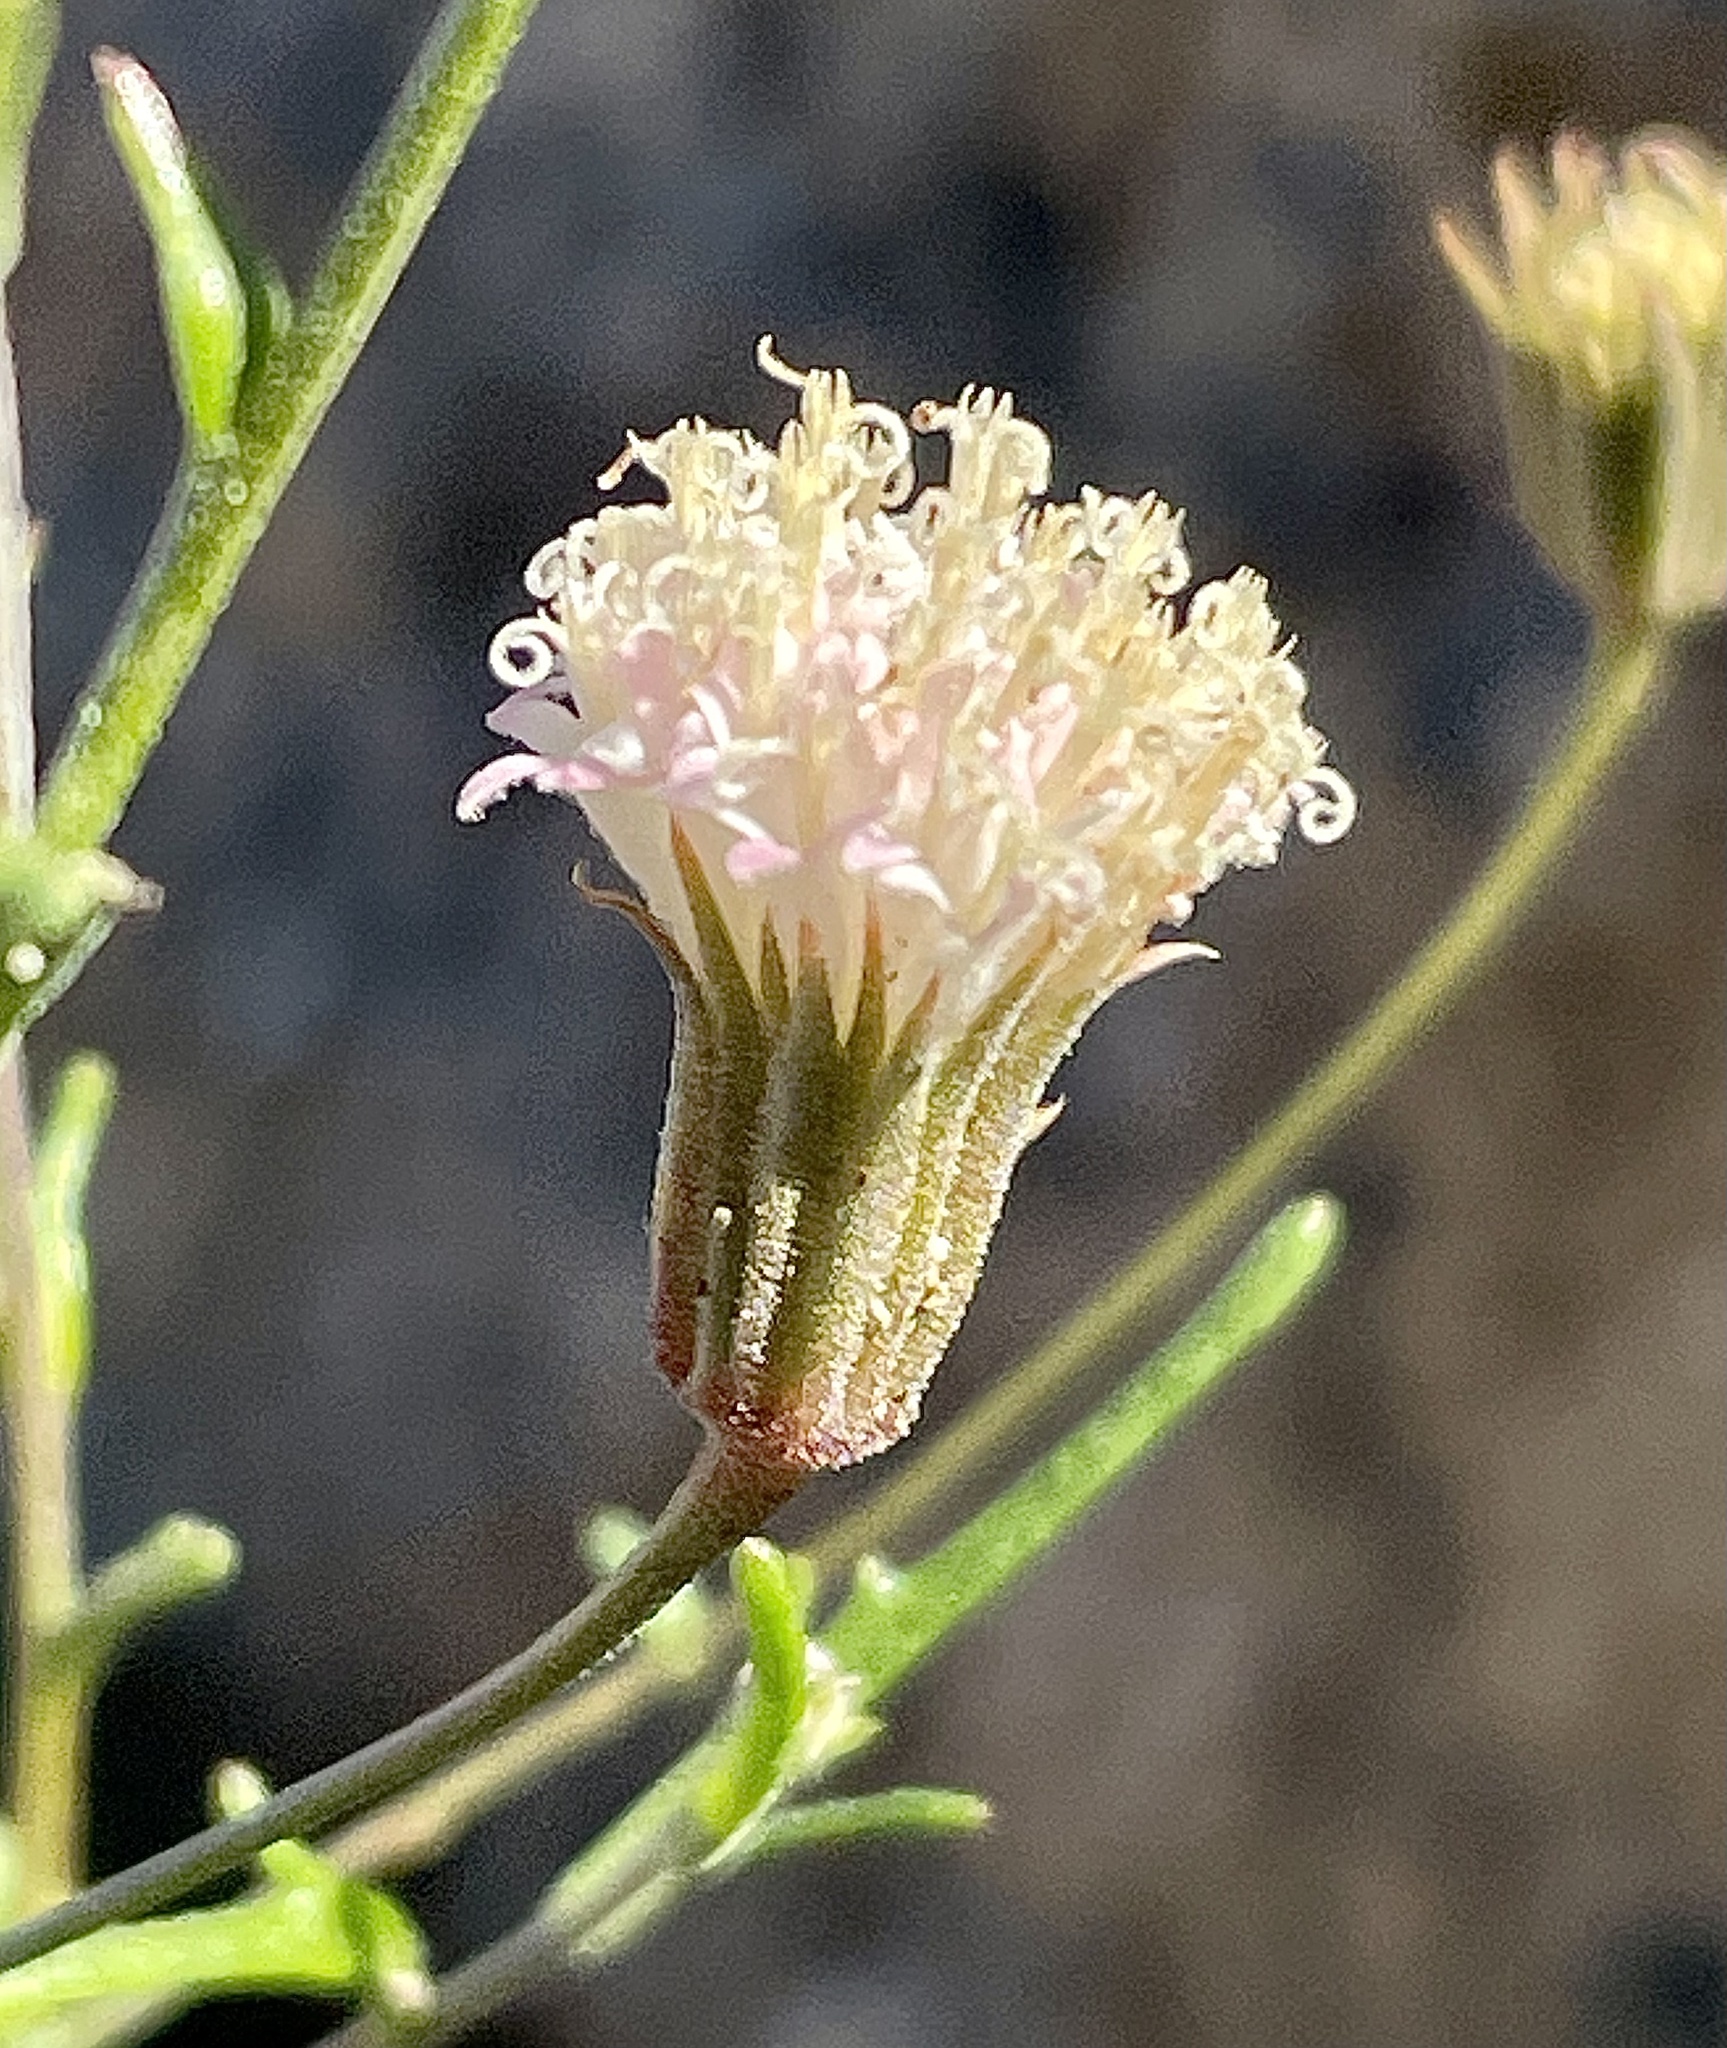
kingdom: Plantae
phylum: Tracheophyta
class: Magnoliopsida
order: Asterales
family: Asteraceae
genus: Chaenactis
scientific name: Chaenactis carphoclinia
